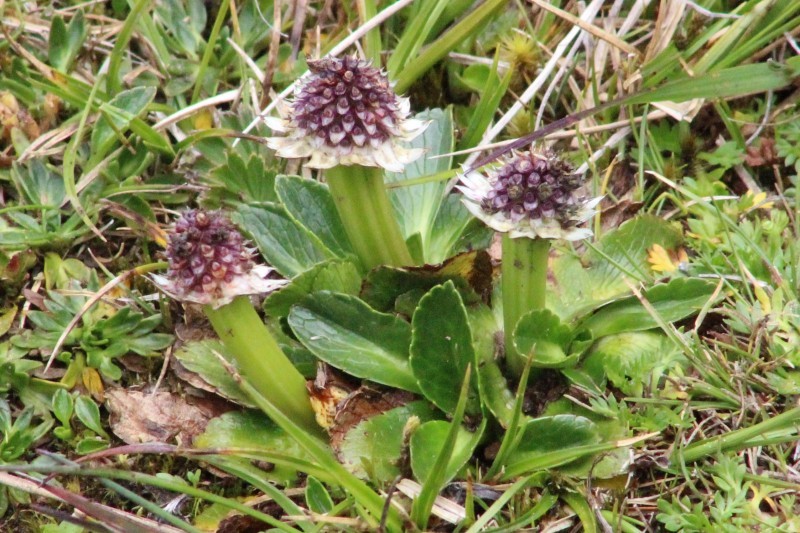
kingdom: Plantae
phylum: Tracheophyta
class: Magnoliopsida
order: Apiales
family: Apiaceae
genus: Eryngium
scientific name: Eryngium humile
